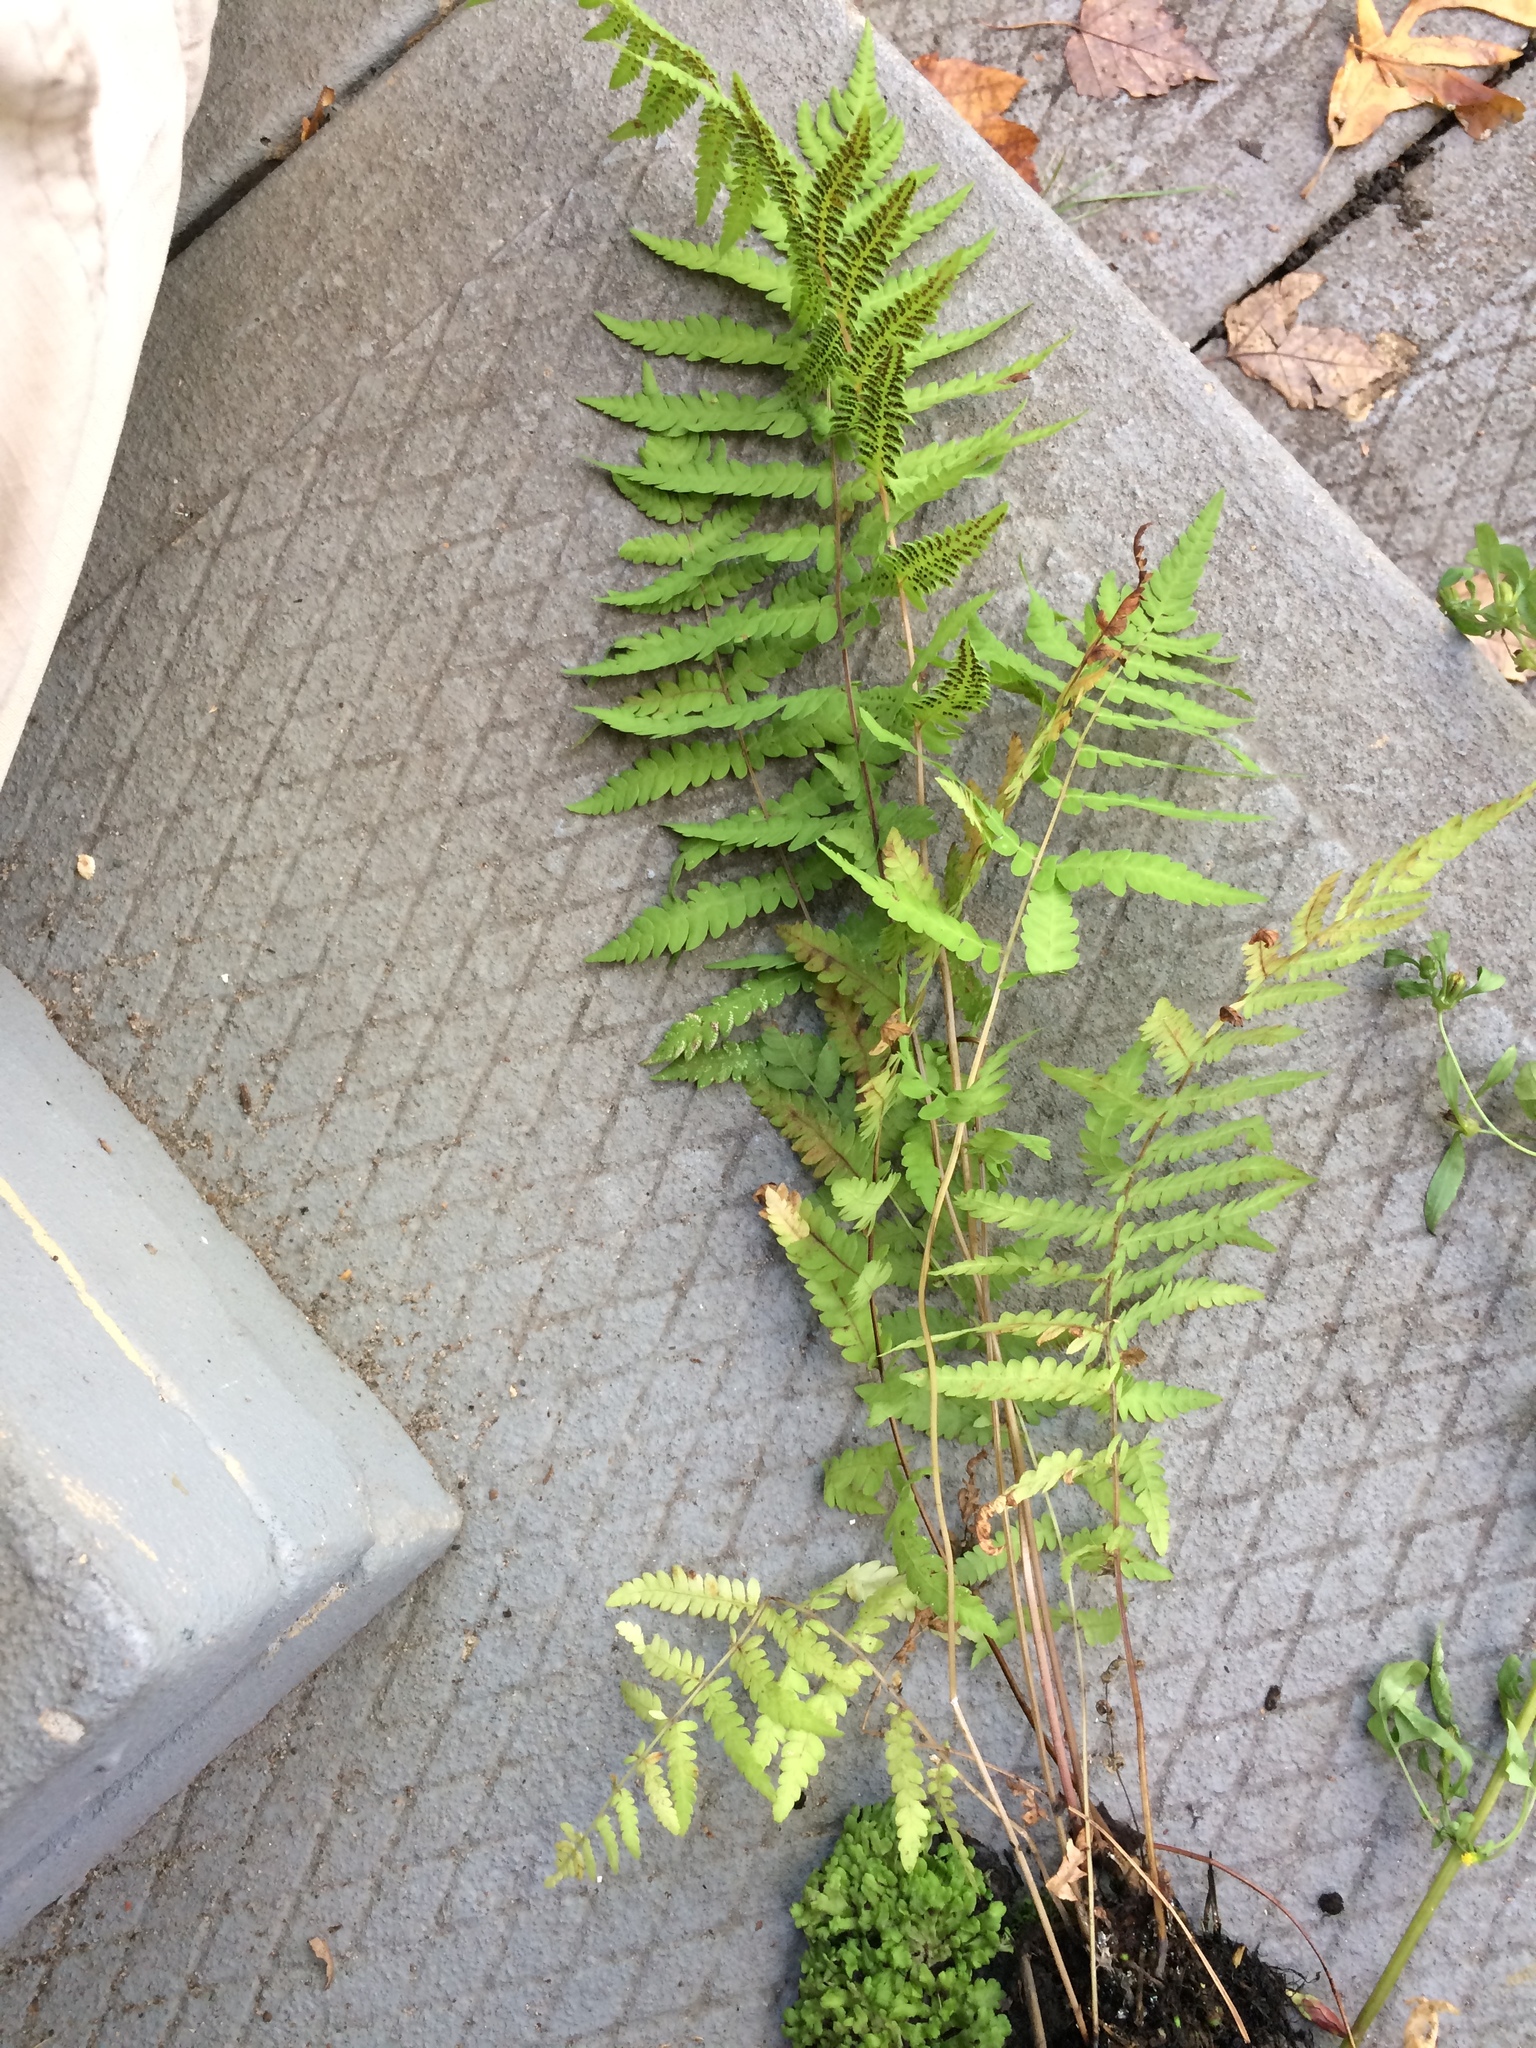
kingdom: Plantae
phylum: Tracheophyta
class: Polypodiopsida
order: Polypodiales
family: Thelypteridaceae
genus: Thelypteris
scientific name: Thelypteris palustris
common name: Marsh fern
